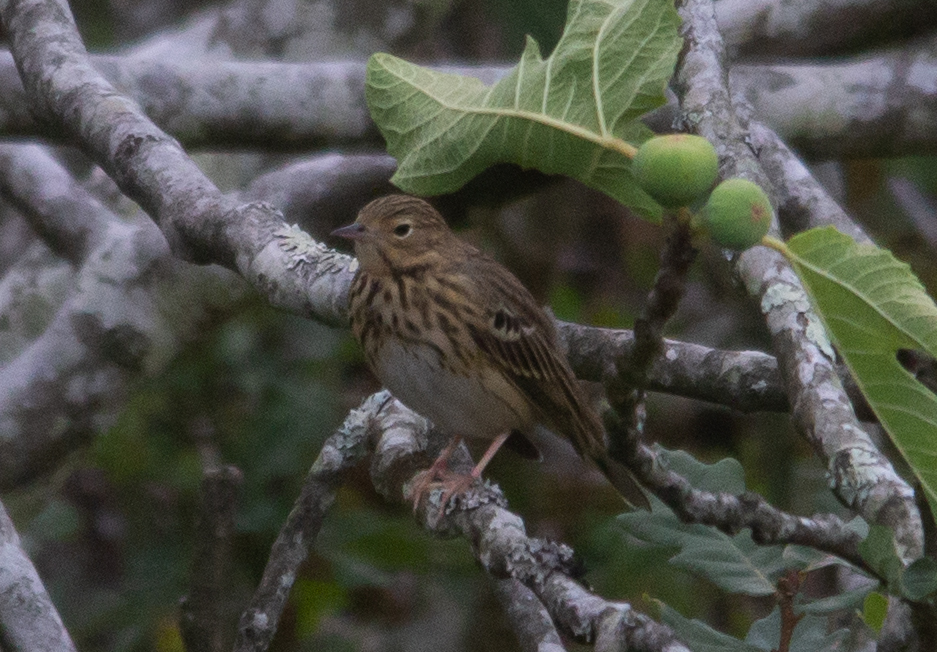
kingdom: Animalia
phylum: Chordata
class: Aves
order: Passeriformes
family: Motacillidae
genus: Anthus
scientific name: Anthus trivialis
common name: Tree pipit
